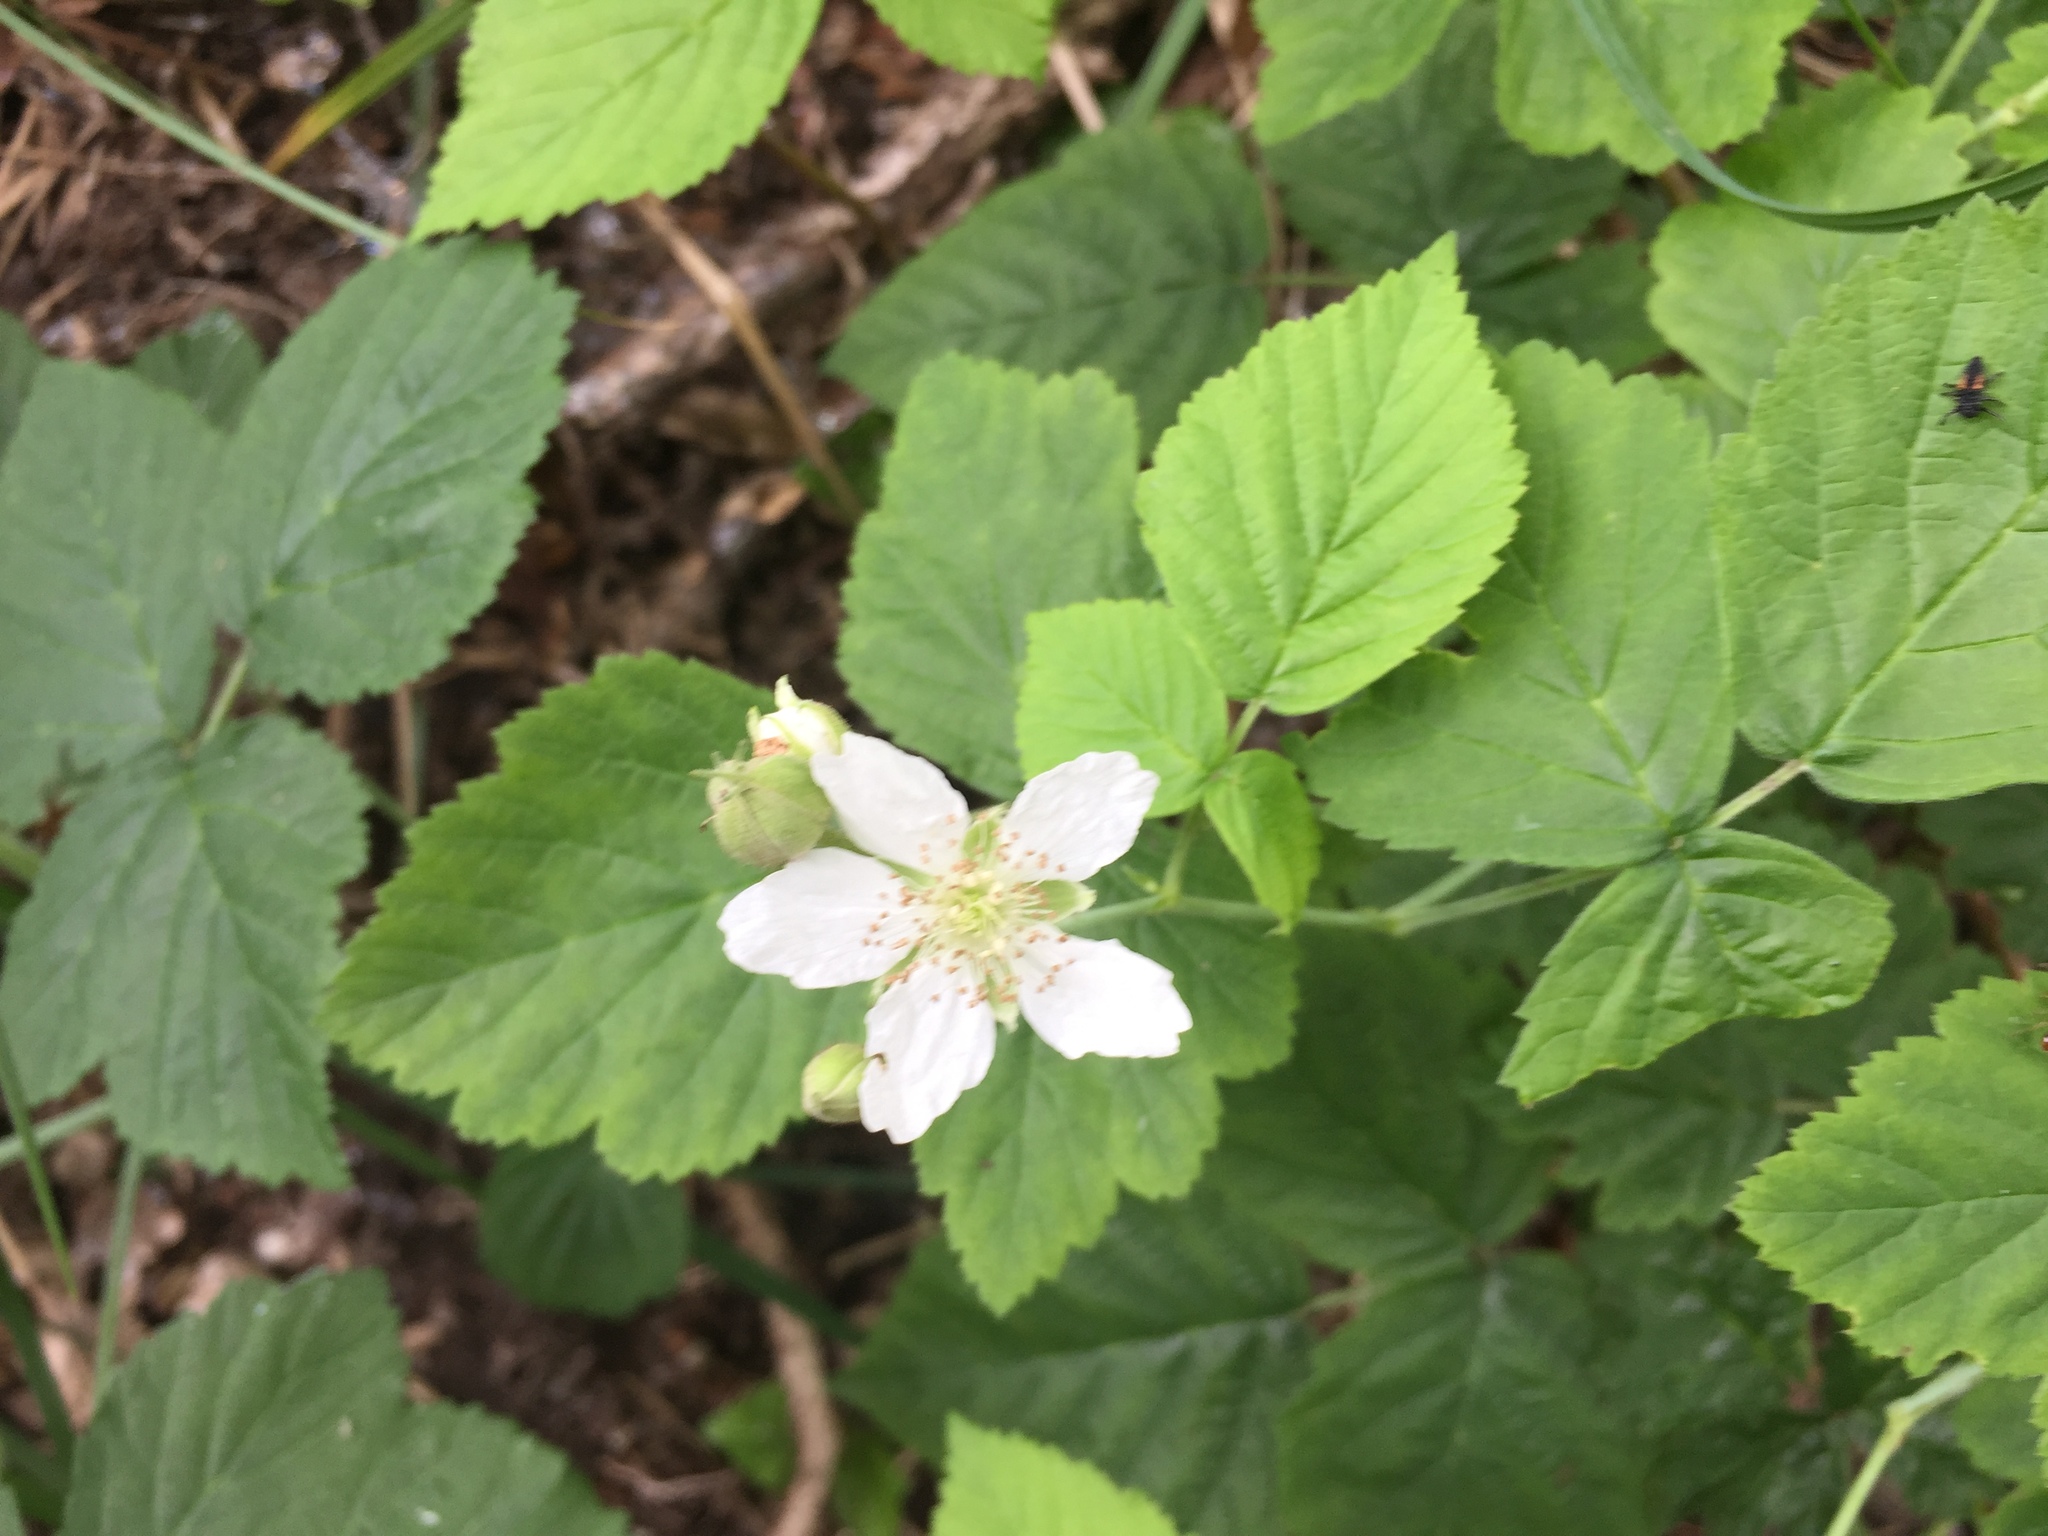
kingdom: Plantae
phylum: Tracheophyta
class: Magnoliopsida
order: Rosales
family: Rosaceae
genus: Rubus
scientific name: Rubus caesius
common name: Dewberry
